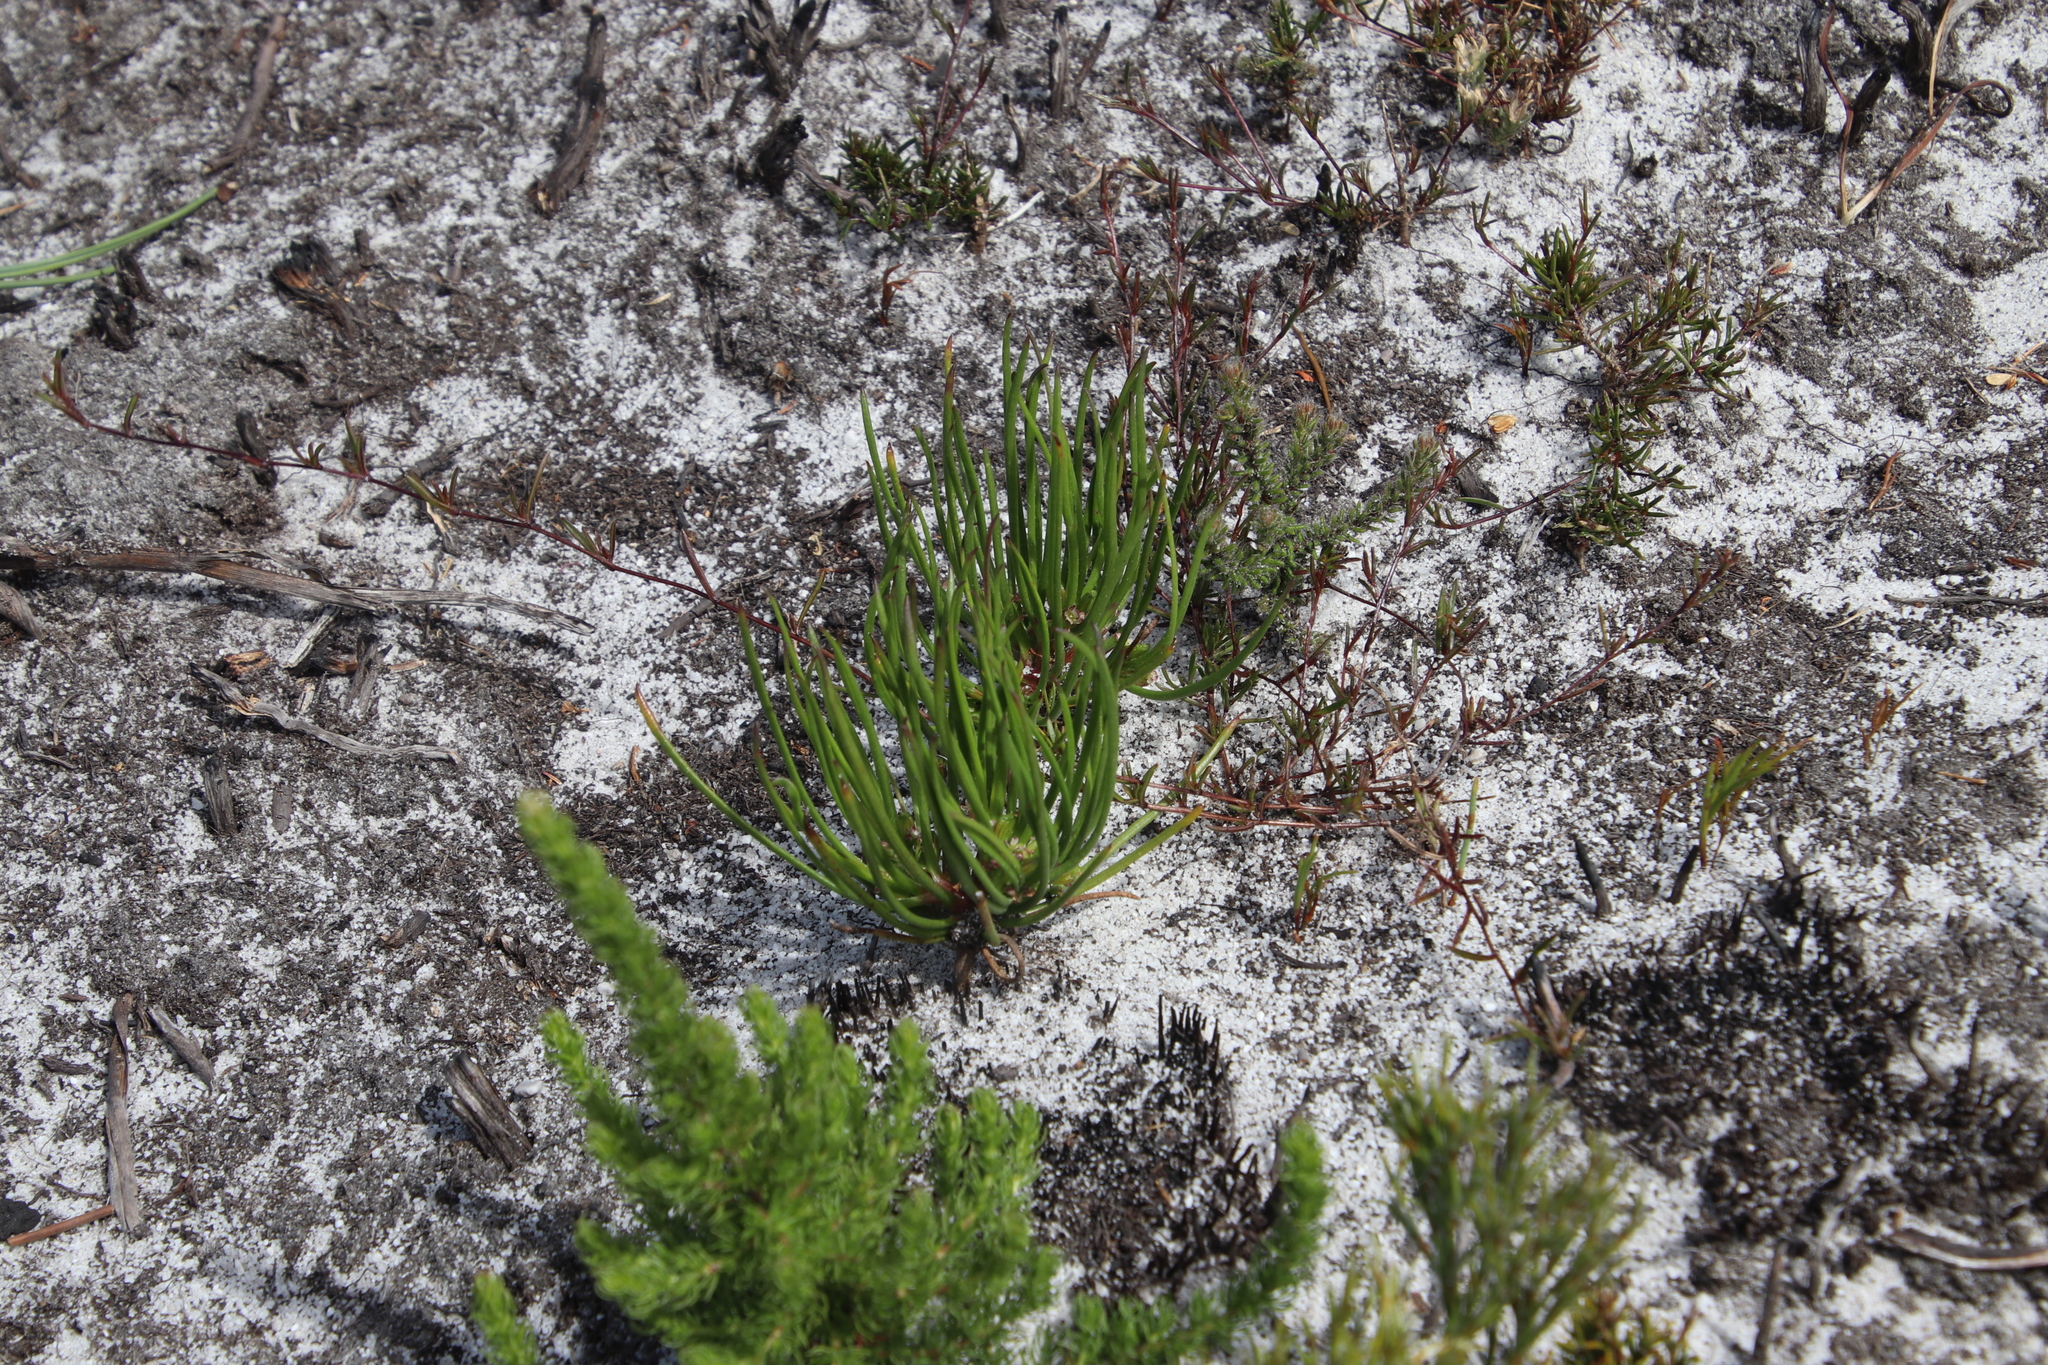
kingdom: Plantae
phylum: Tracheophyta
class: Magnoliopsida
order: Apiales
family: Apiaceae
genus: Centella
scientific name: Centella macrocarpa
